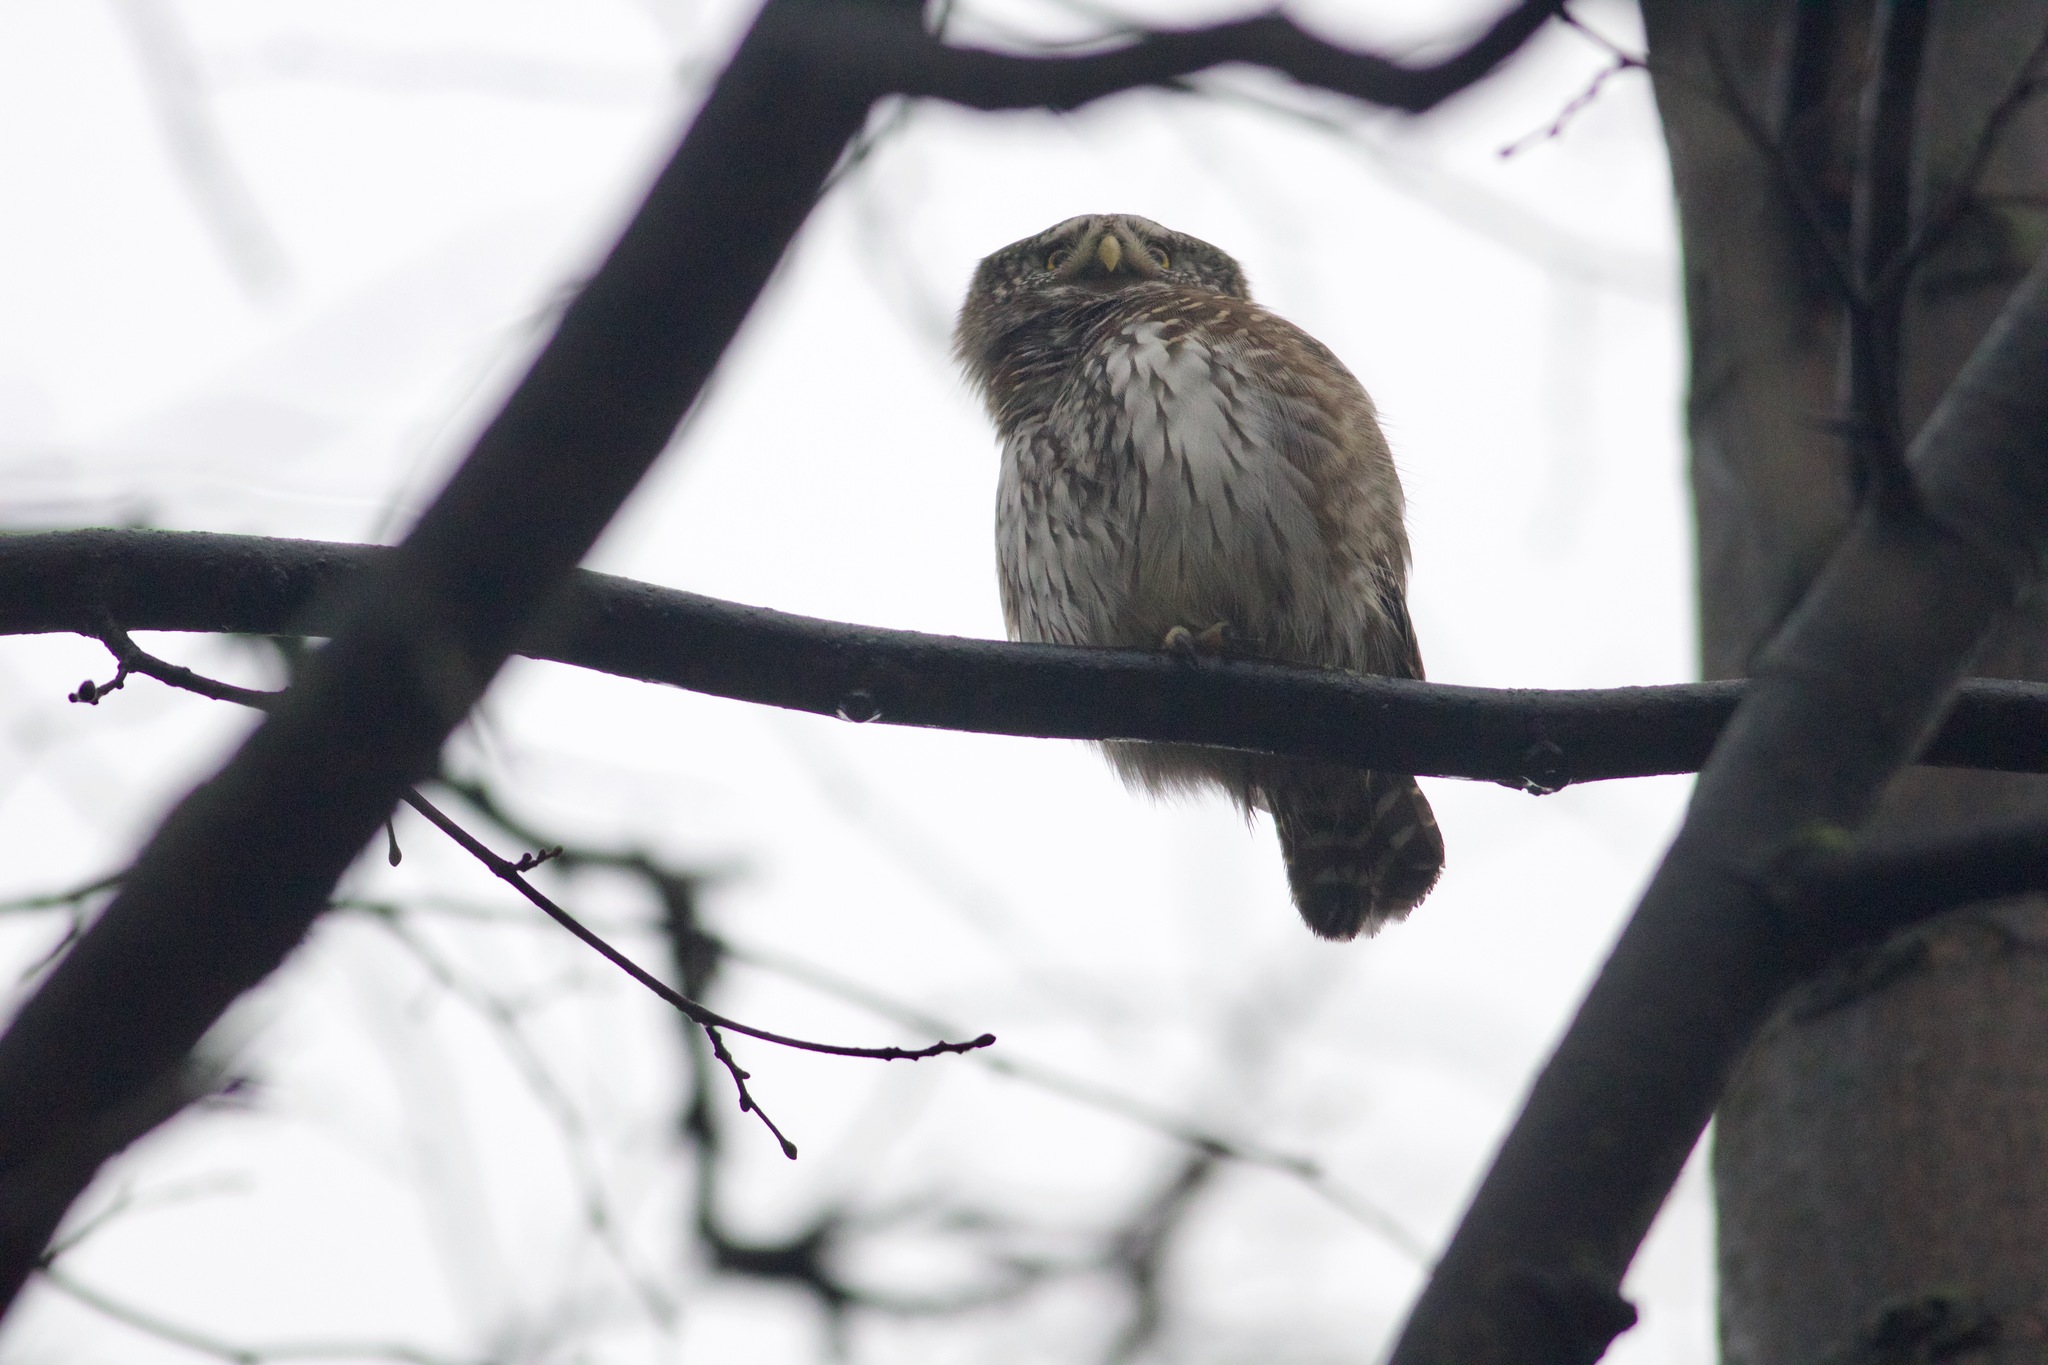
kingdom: Animalia
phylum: Chordata
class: Aves
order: Strigiformes
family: Strigidae
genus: Glaucidium
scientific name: Glaucidium passerinum
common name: Eurasian pygmy owl
